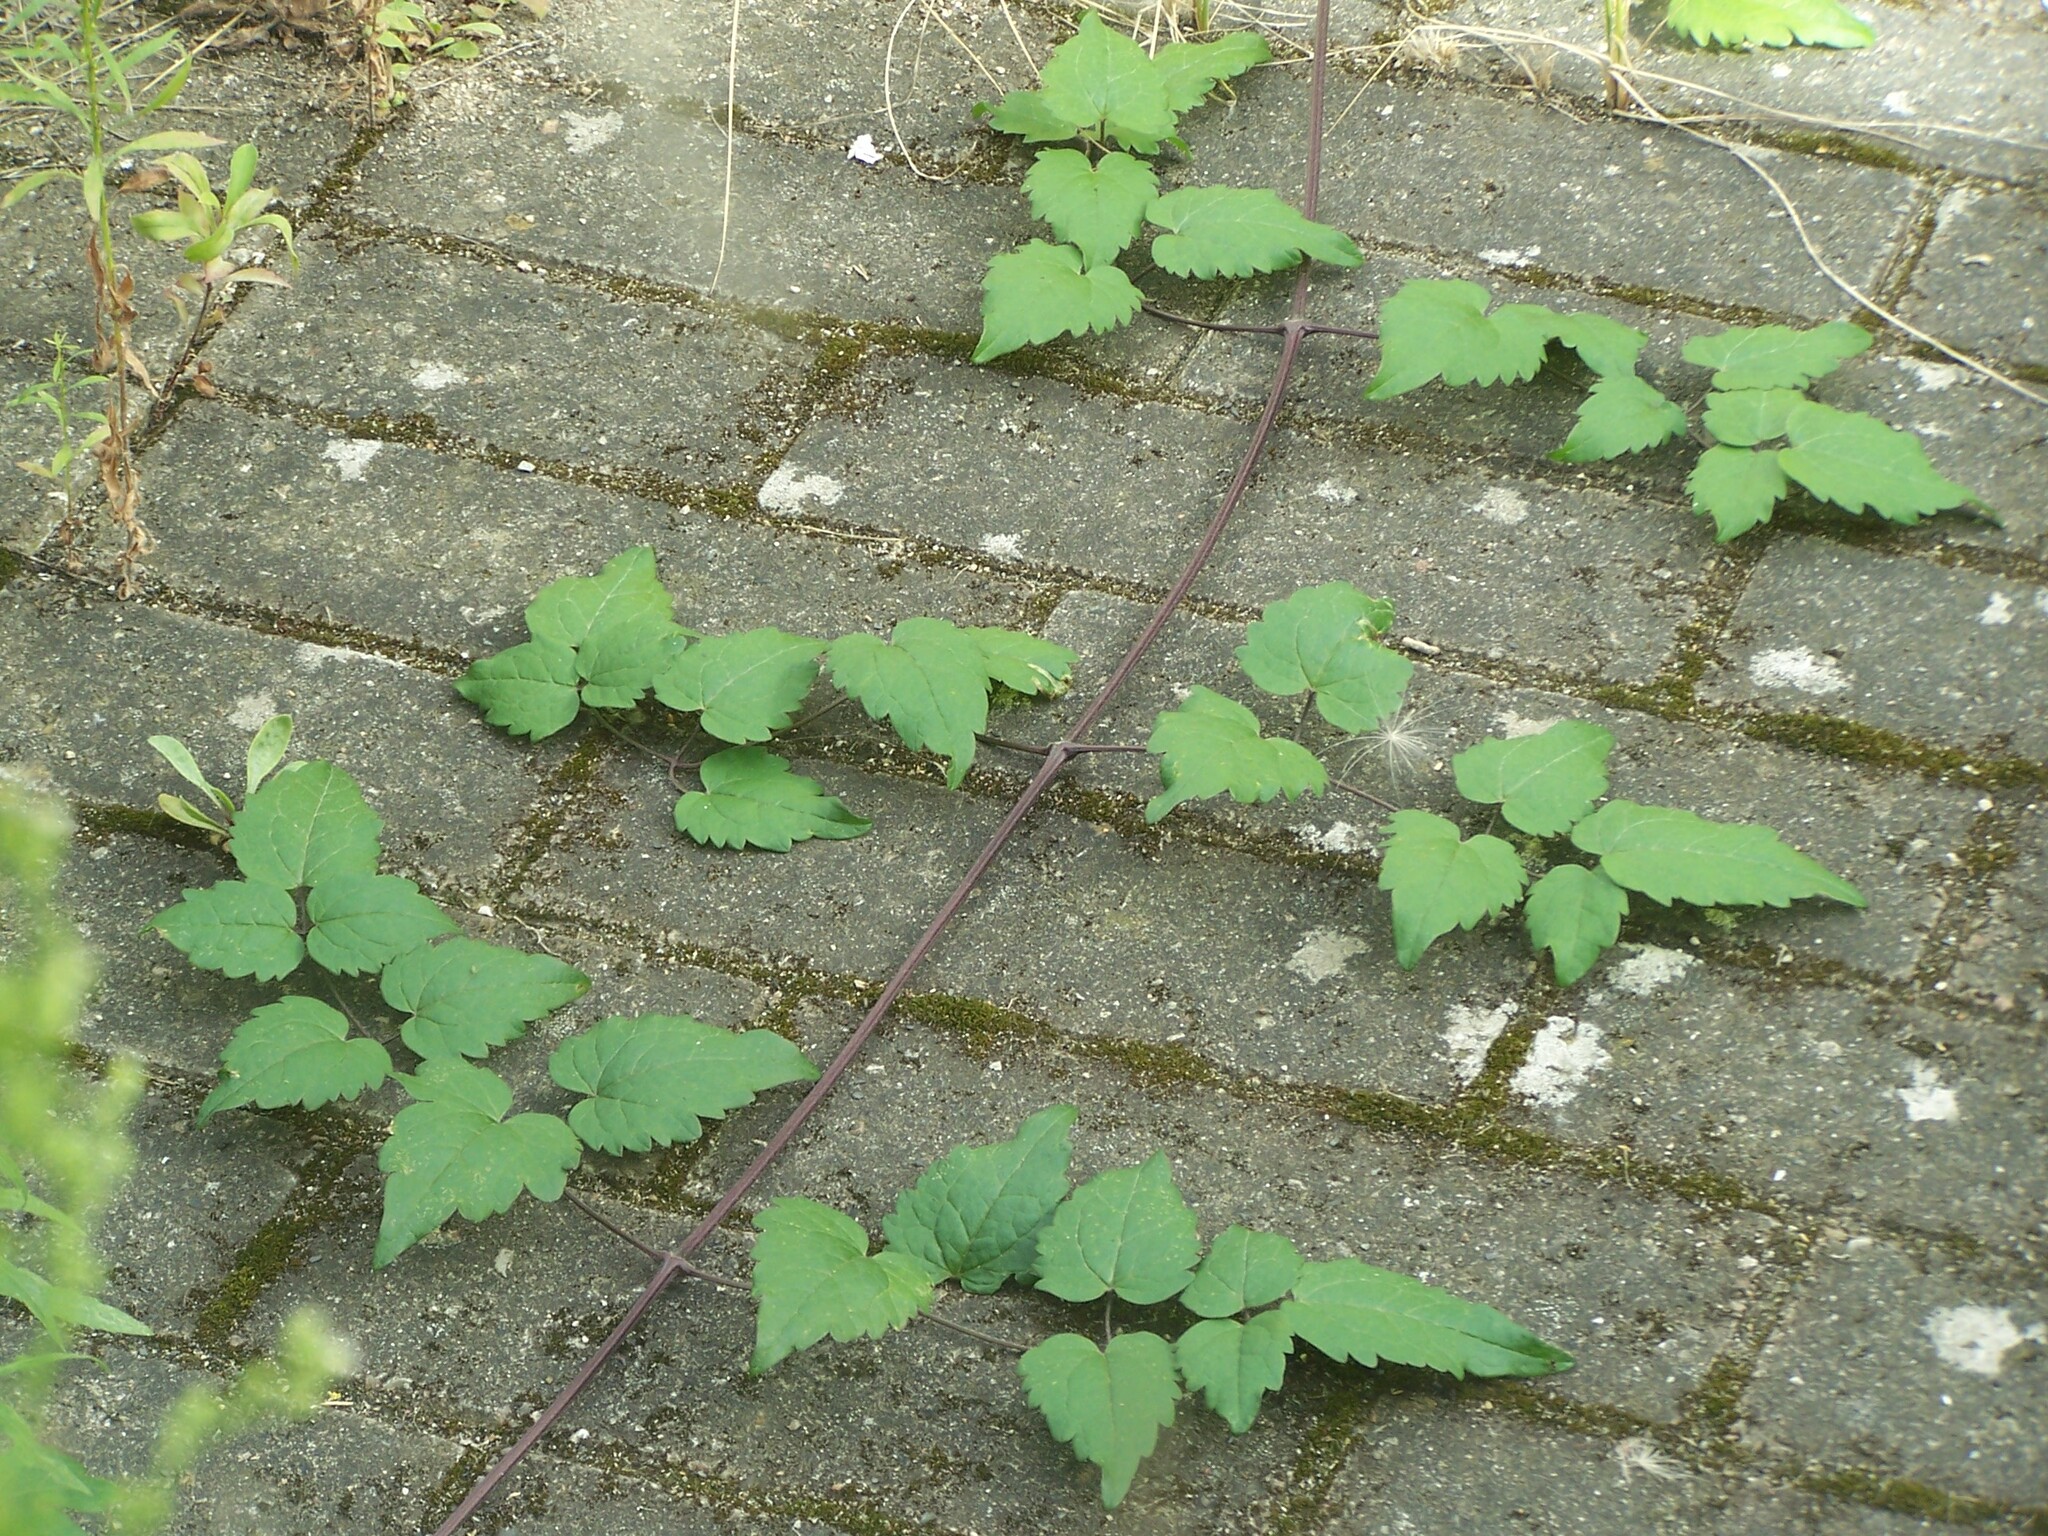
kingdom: Plantae
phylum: Tracheophyta
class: Magnoliopsida
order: Ranunculales
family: Ranunculaceae
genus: Clematis
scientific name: Clematis vitalba
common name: Evergreen clematis
